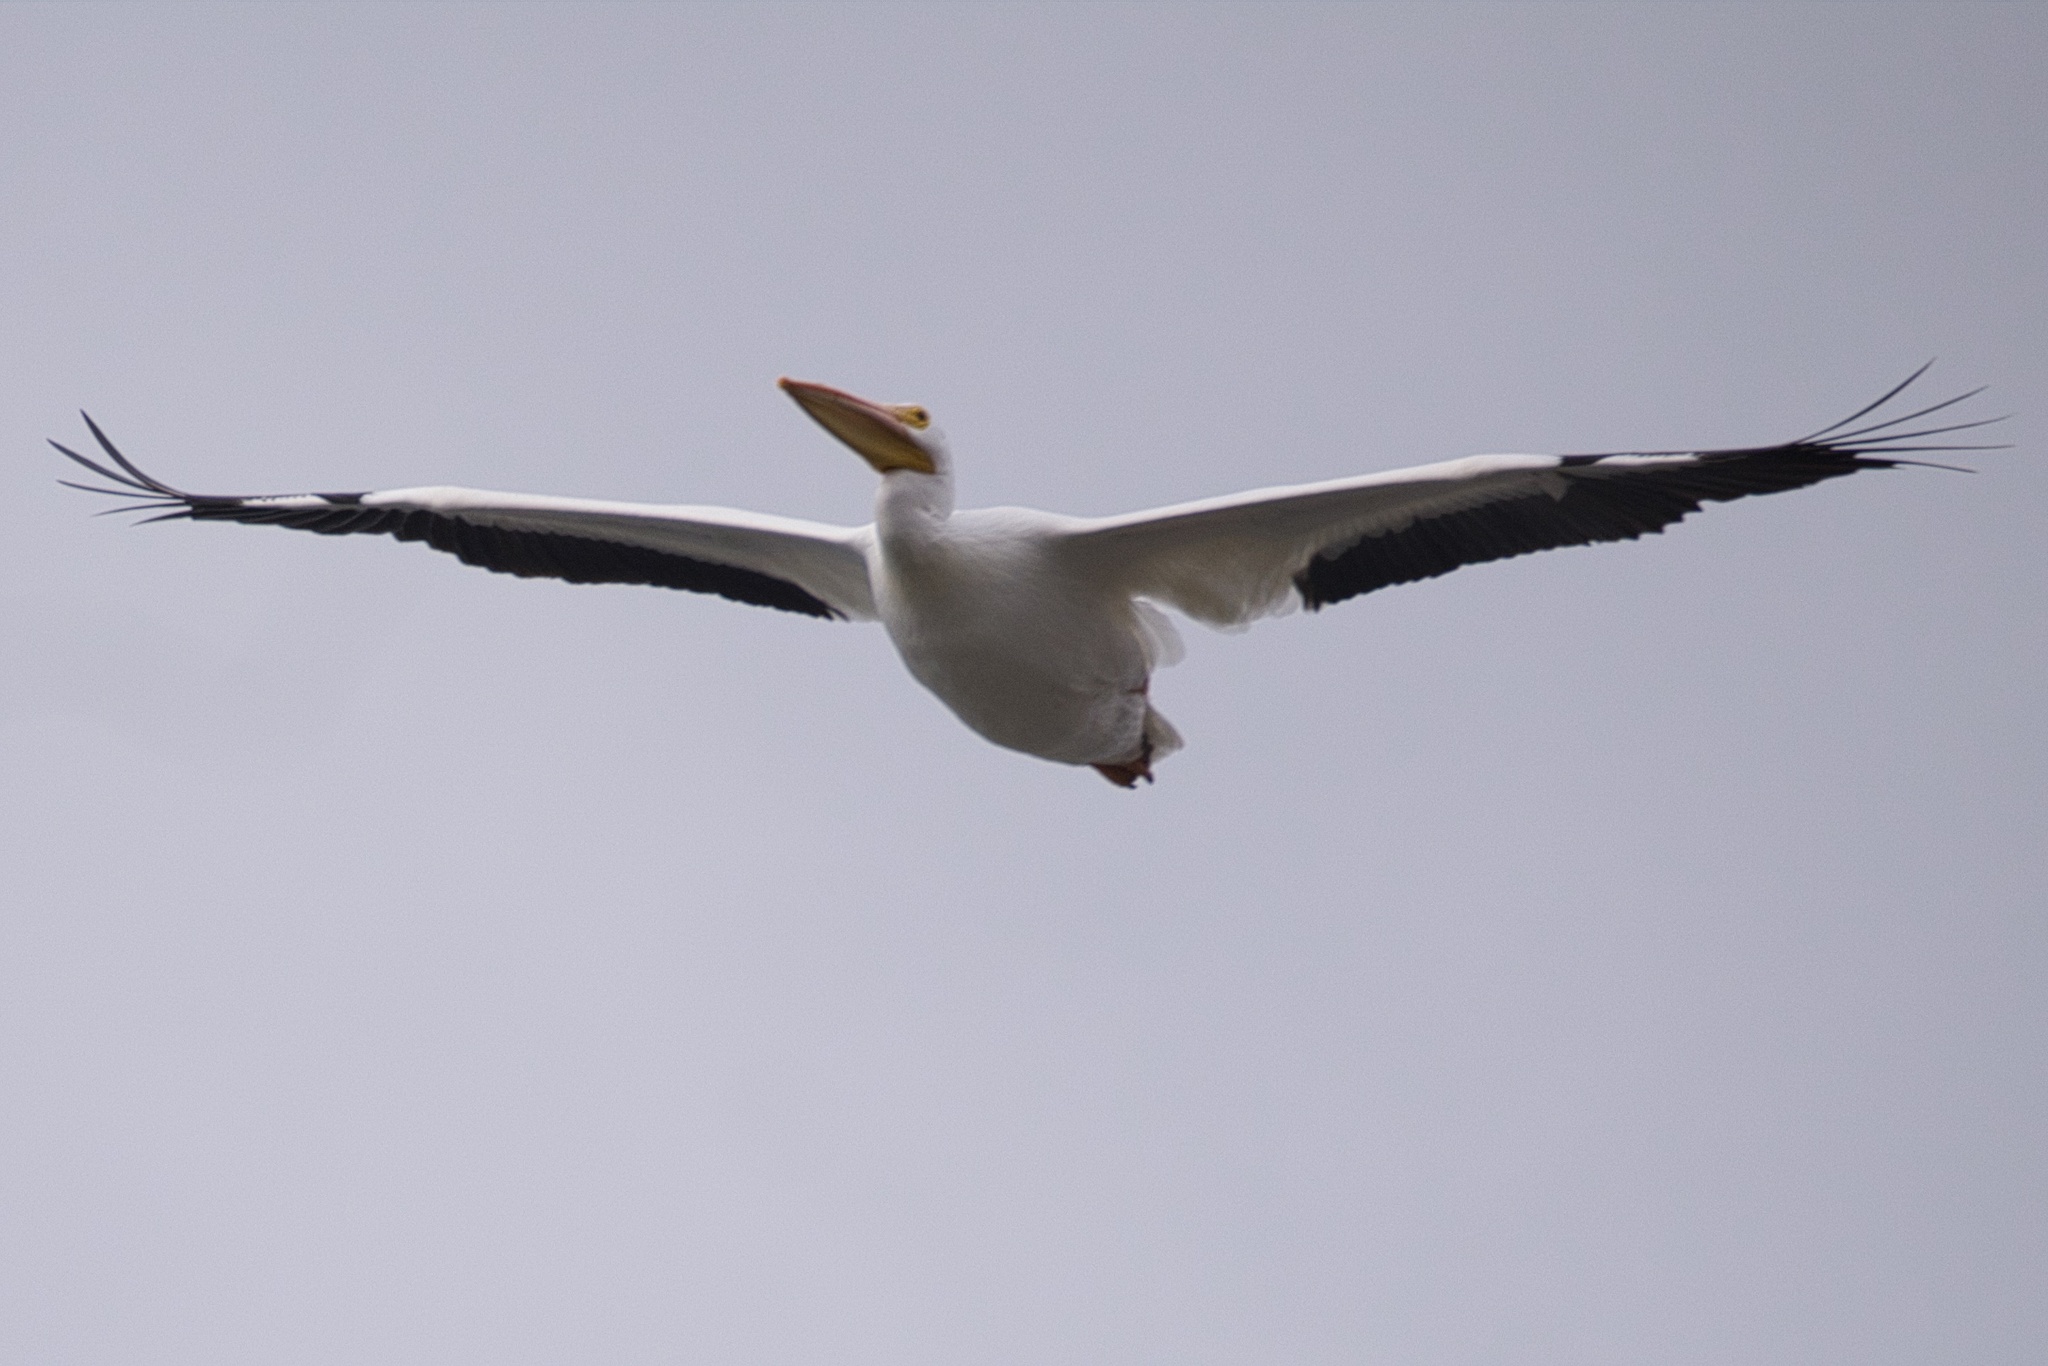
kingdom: Animalia
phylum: Chordata
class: Aves
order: Pelecaniformes
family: Pelecanidae
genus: Pelecanus
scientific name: Pelecanus erythrorhynchos
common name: American white pelican
